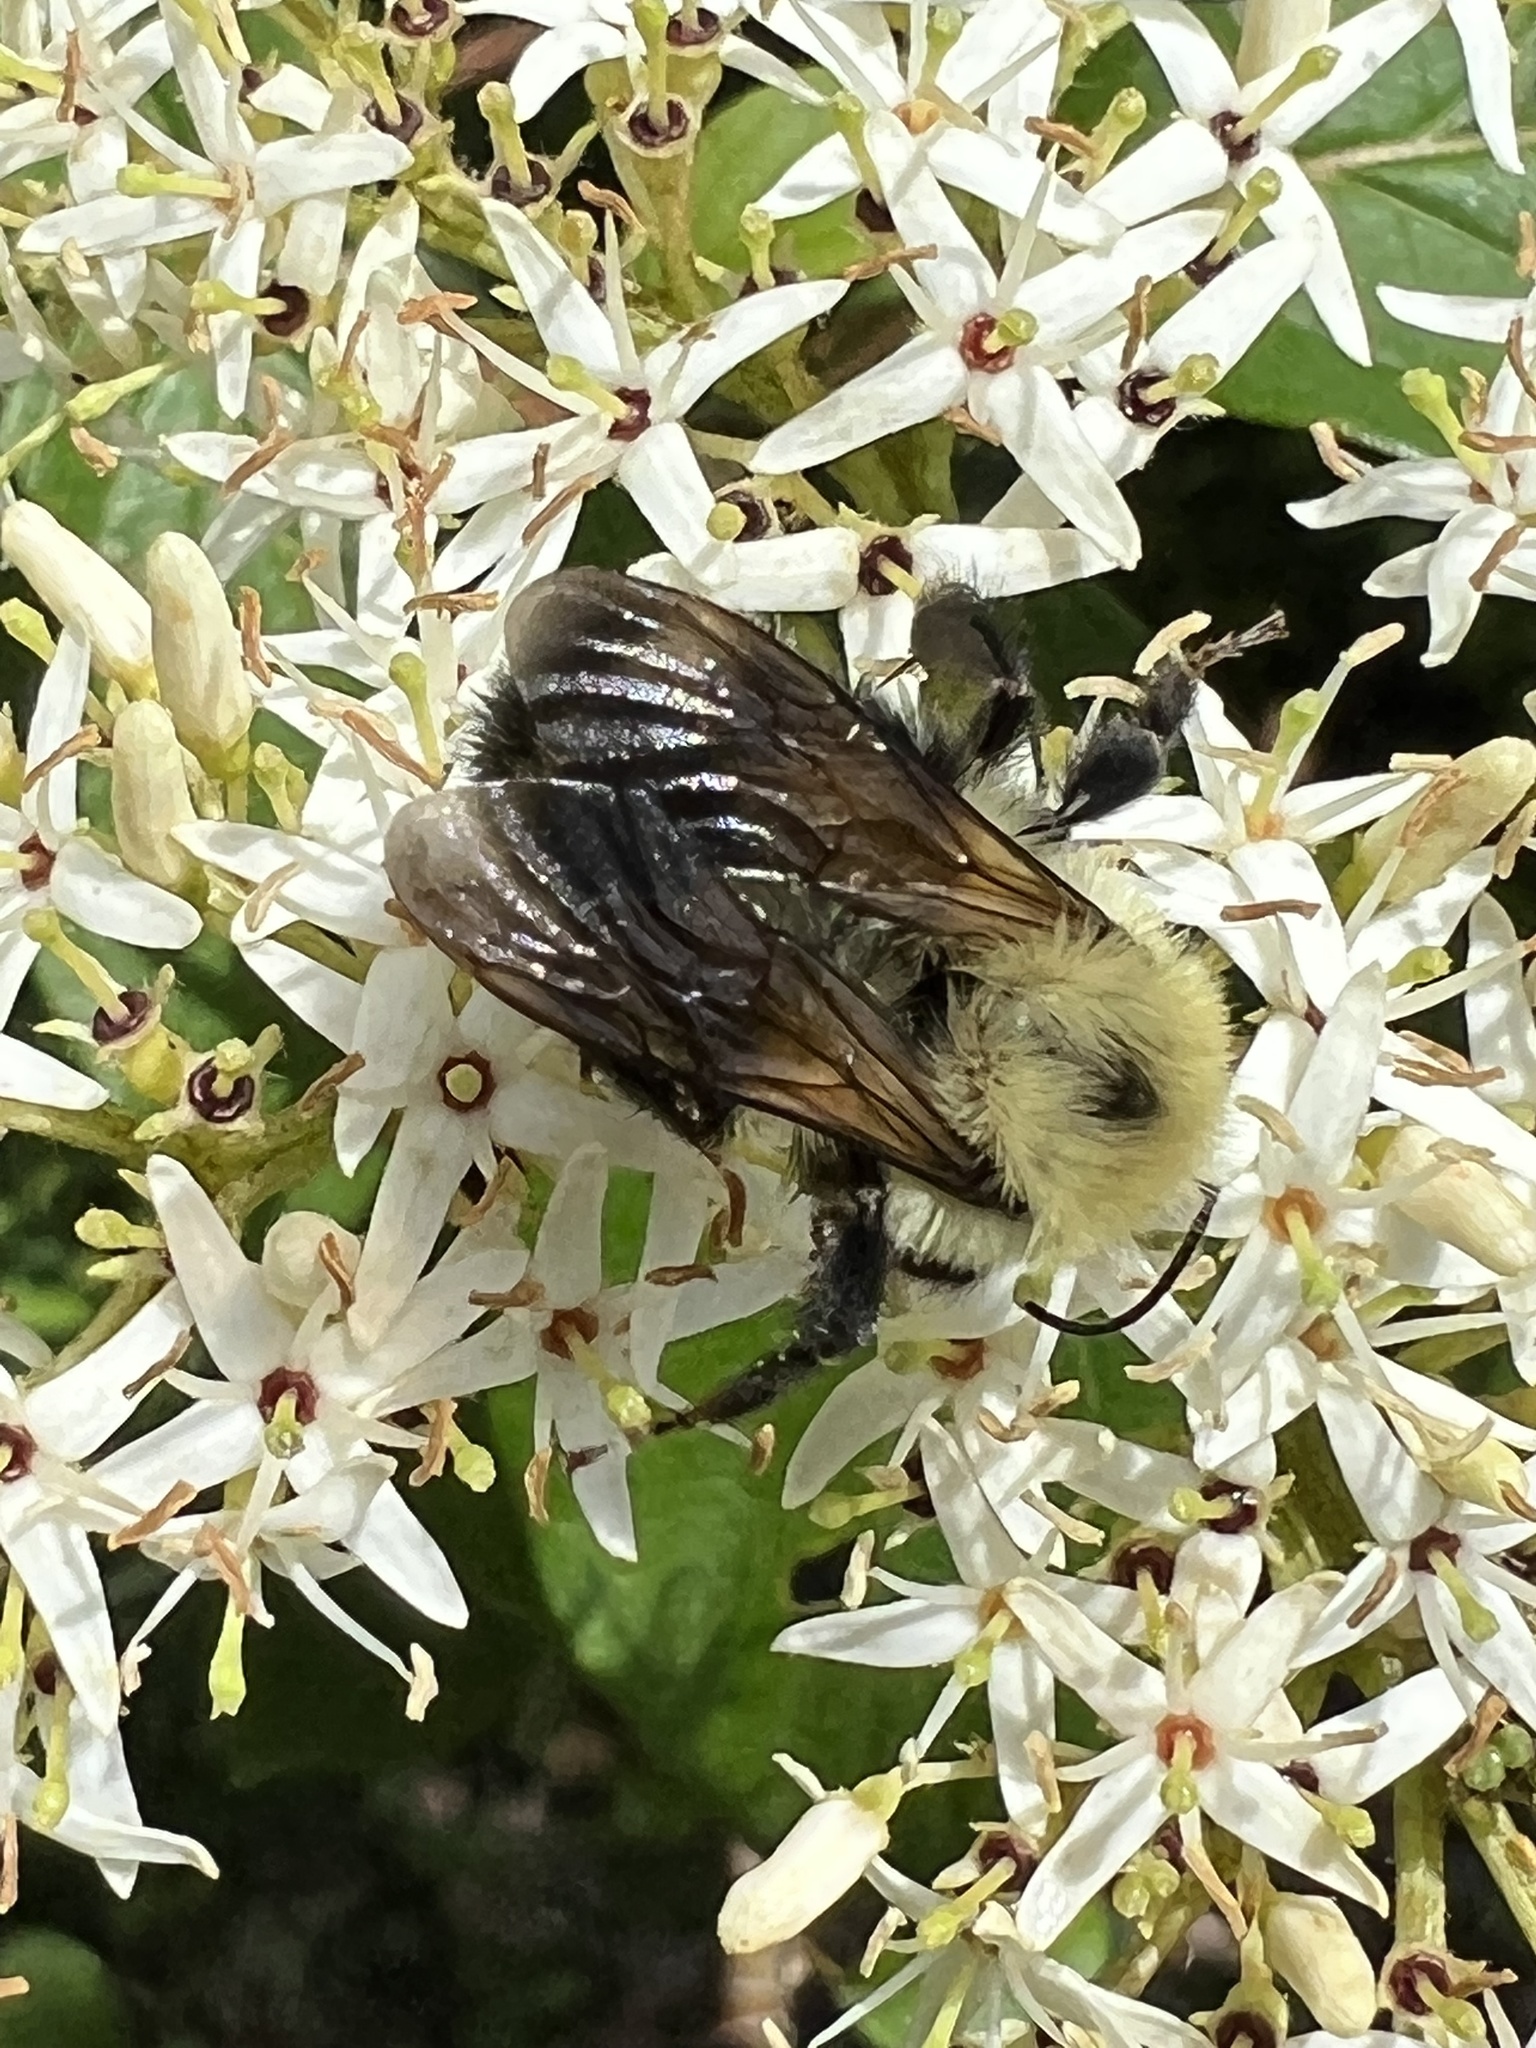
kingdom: Animalia
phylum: Arthropoda
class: Insecta
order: Hymenoptera
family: Apidae
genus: Bombus
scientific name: Bombus bimaculatus
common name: Two-spotted bumble bee
